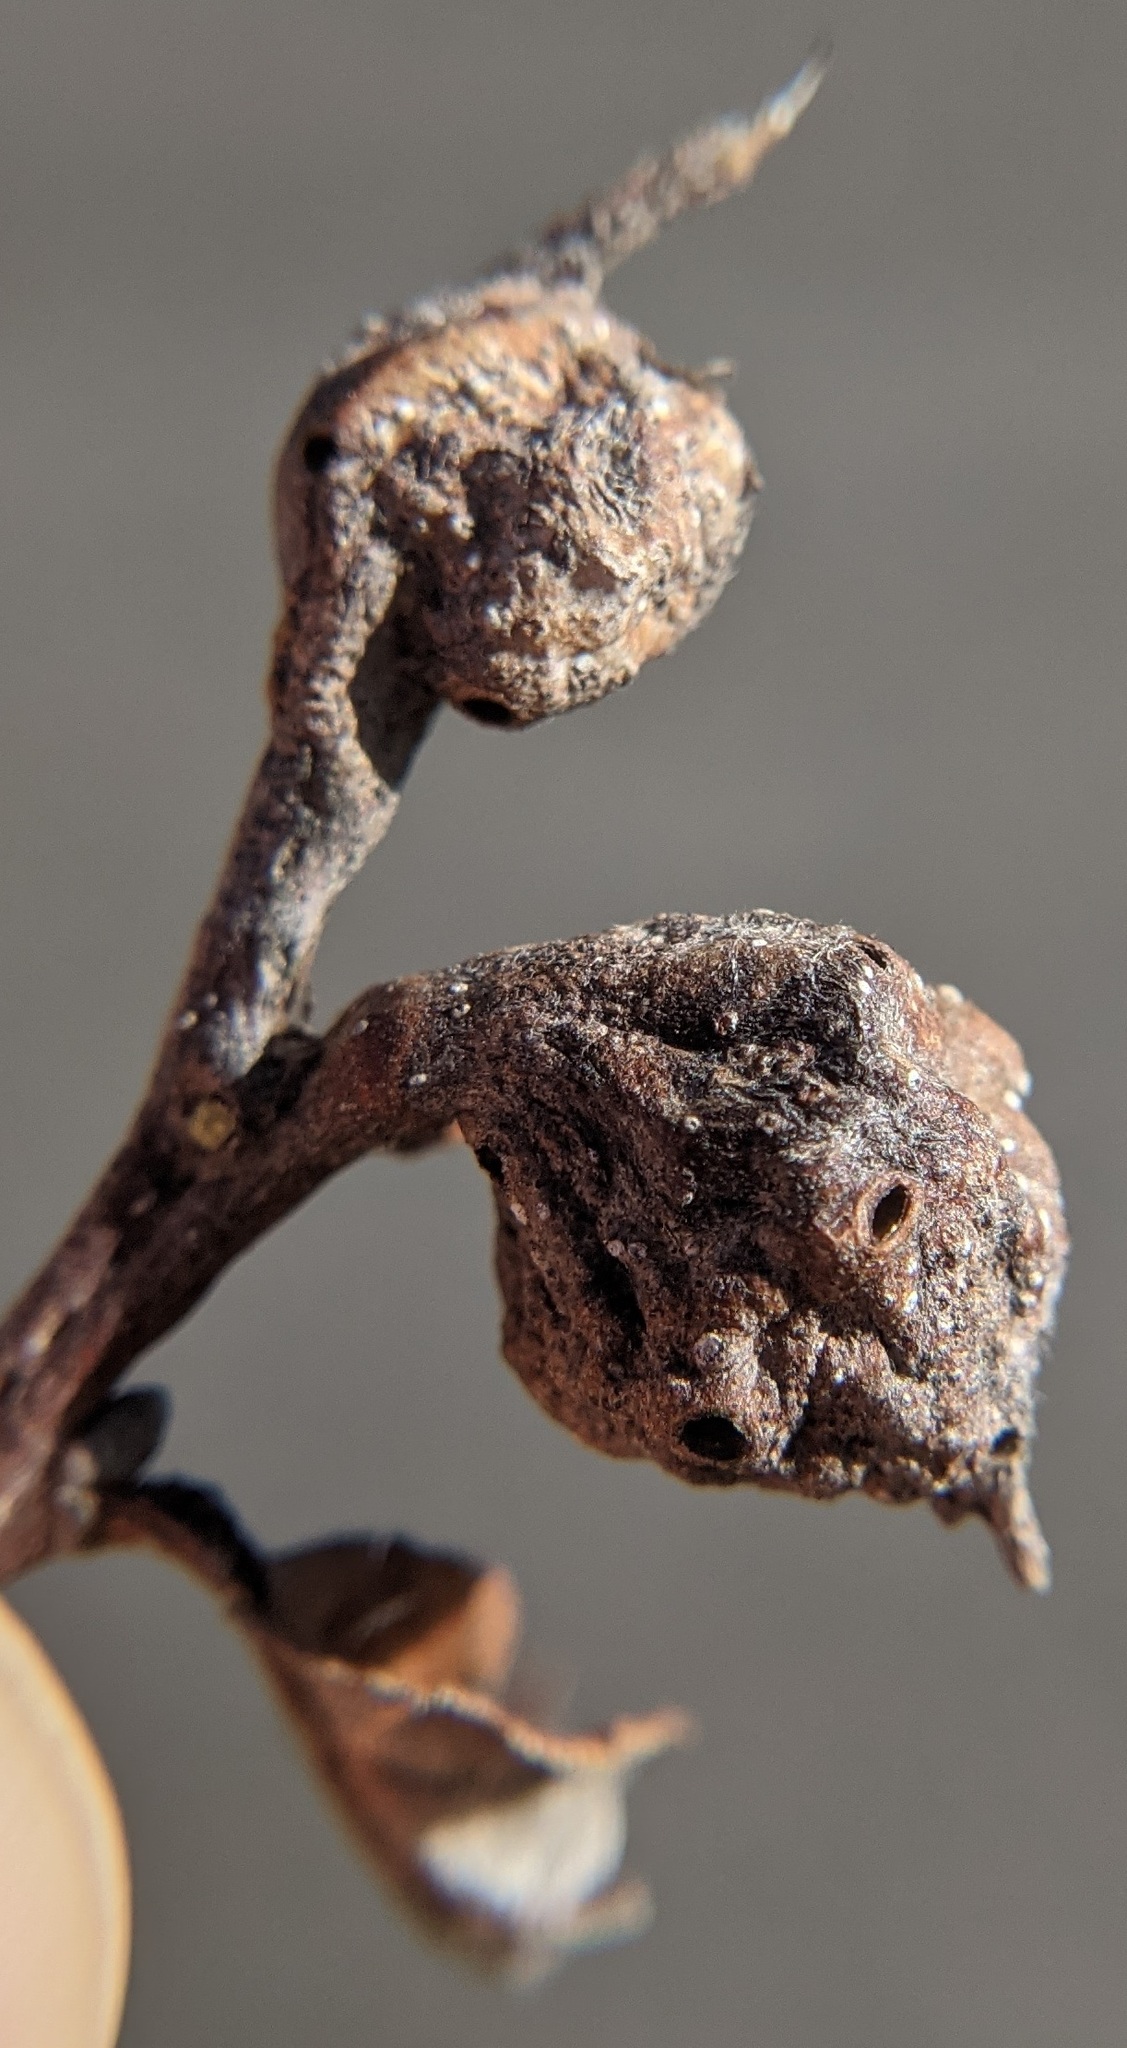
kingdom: Animalia
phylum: Arthropoda
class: Insecta
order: Hymenoptera
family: Cynipidae
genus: Andricus
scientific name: Andricus
